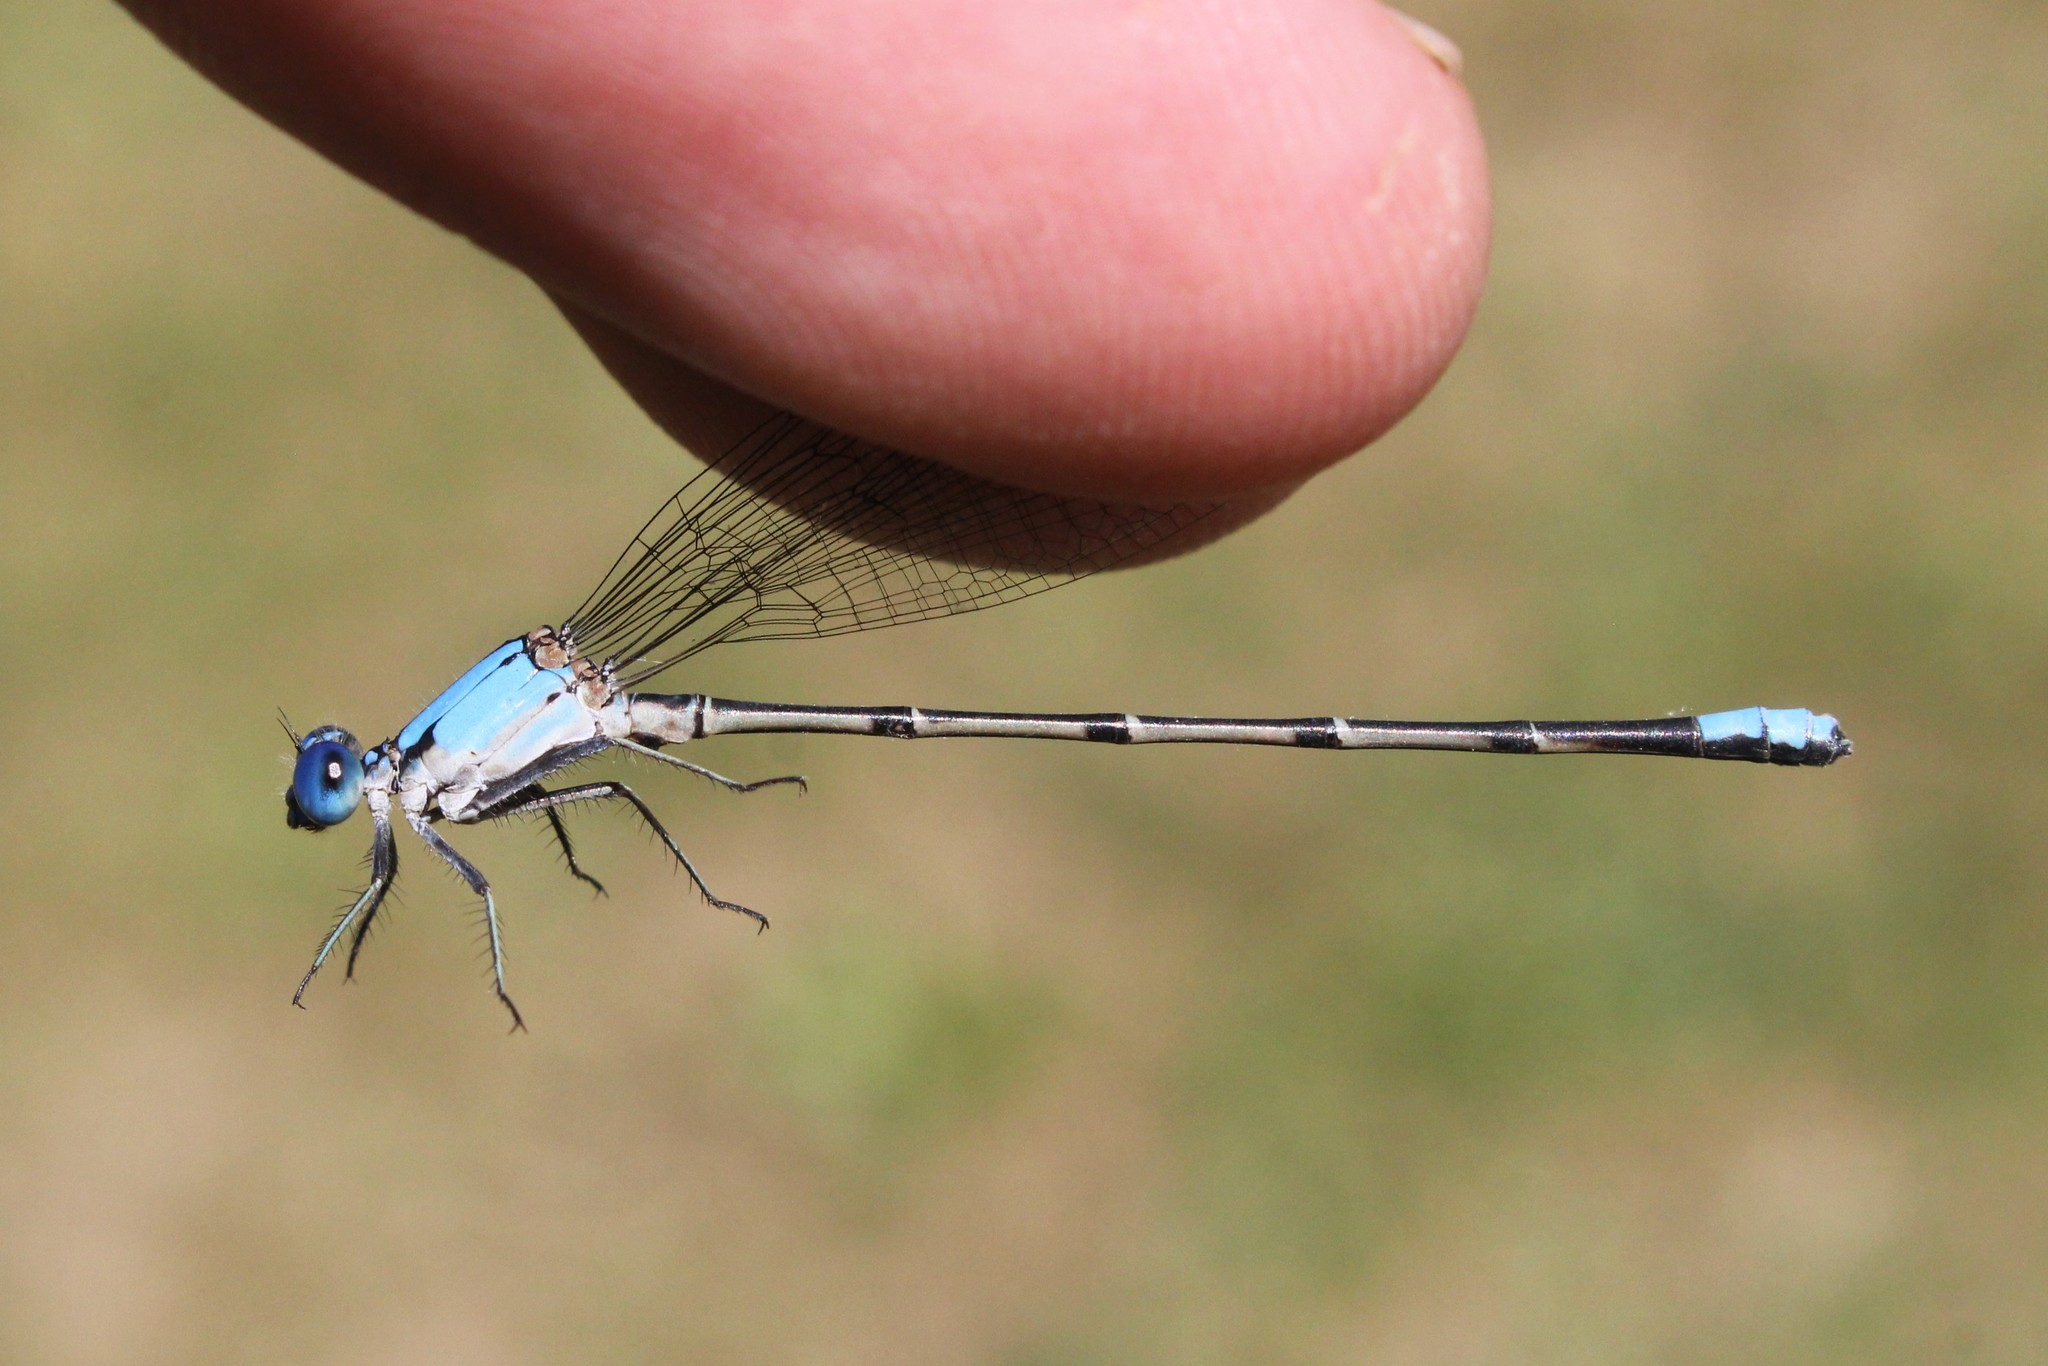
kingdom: Animalia
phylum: Arthropoda
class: Insecta
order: Odonata
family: Coenagrionidae
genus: Argia
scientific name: Argia apicalis
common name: Blue-fronted dancer
